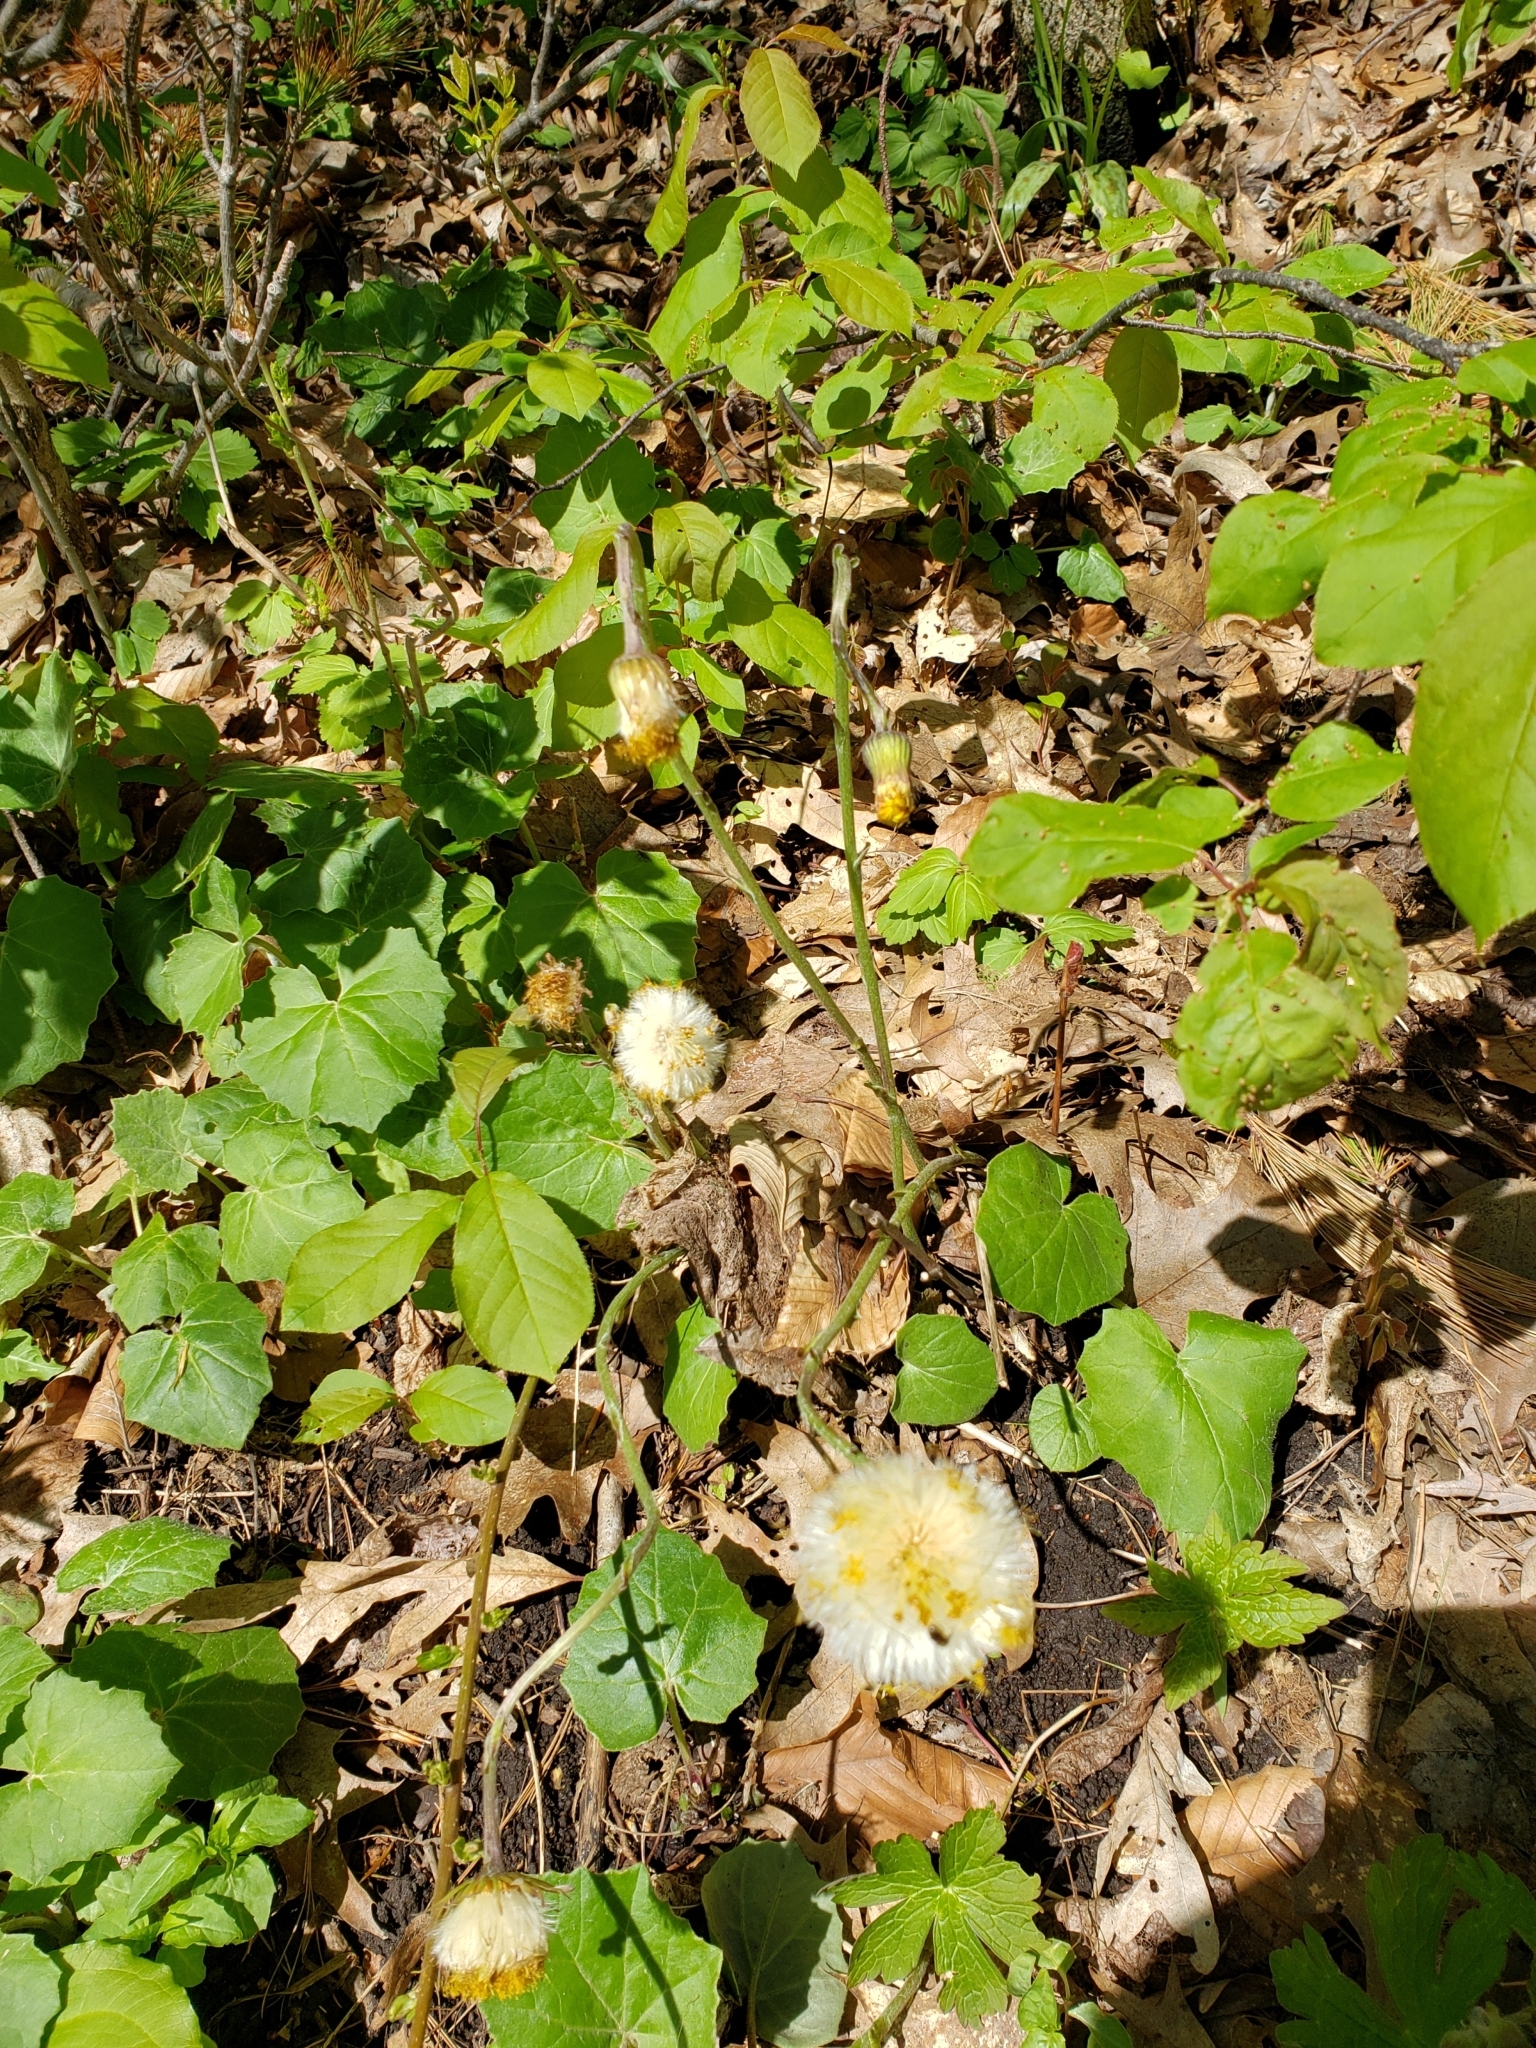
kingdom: Plantae
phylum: Tracheophyta
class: Magnoliopsida
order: Asterales
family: Asteraceae
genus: Tussilago
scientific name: Tussilago farfara
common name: Coltsfoot
